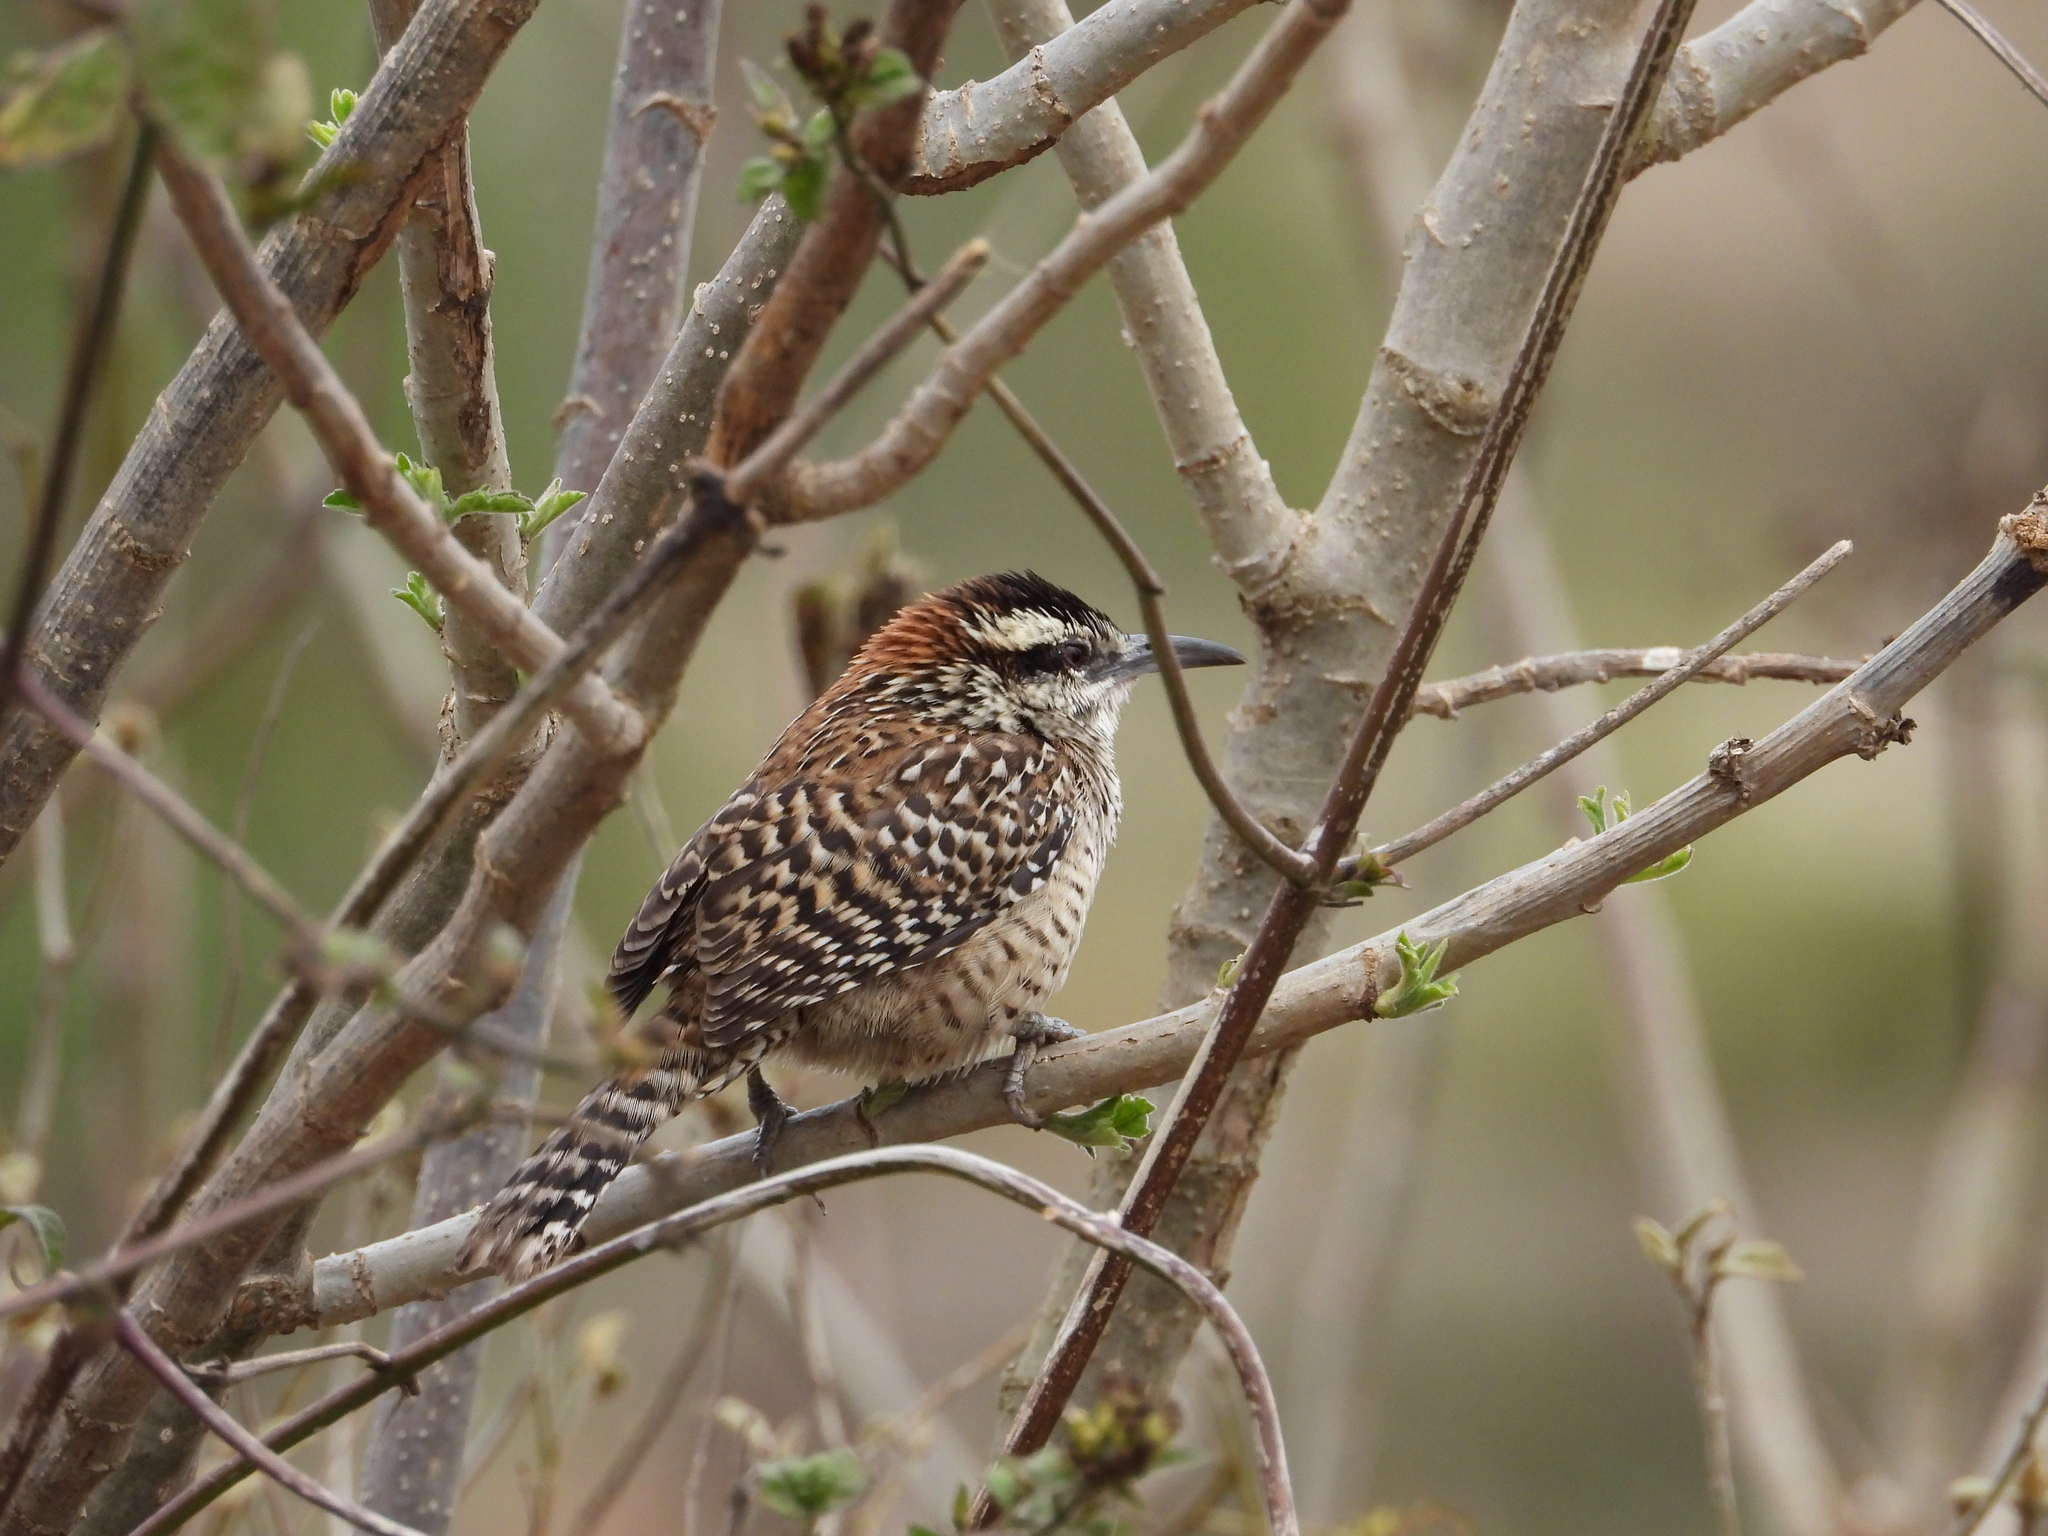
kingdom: Animalia
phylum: Chordata
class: Aves
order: Passeriformes
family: Troglodytidae
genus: Campylorhynchus
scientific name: Campylorhynchus rufinucha
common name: Rufous-naped wren
